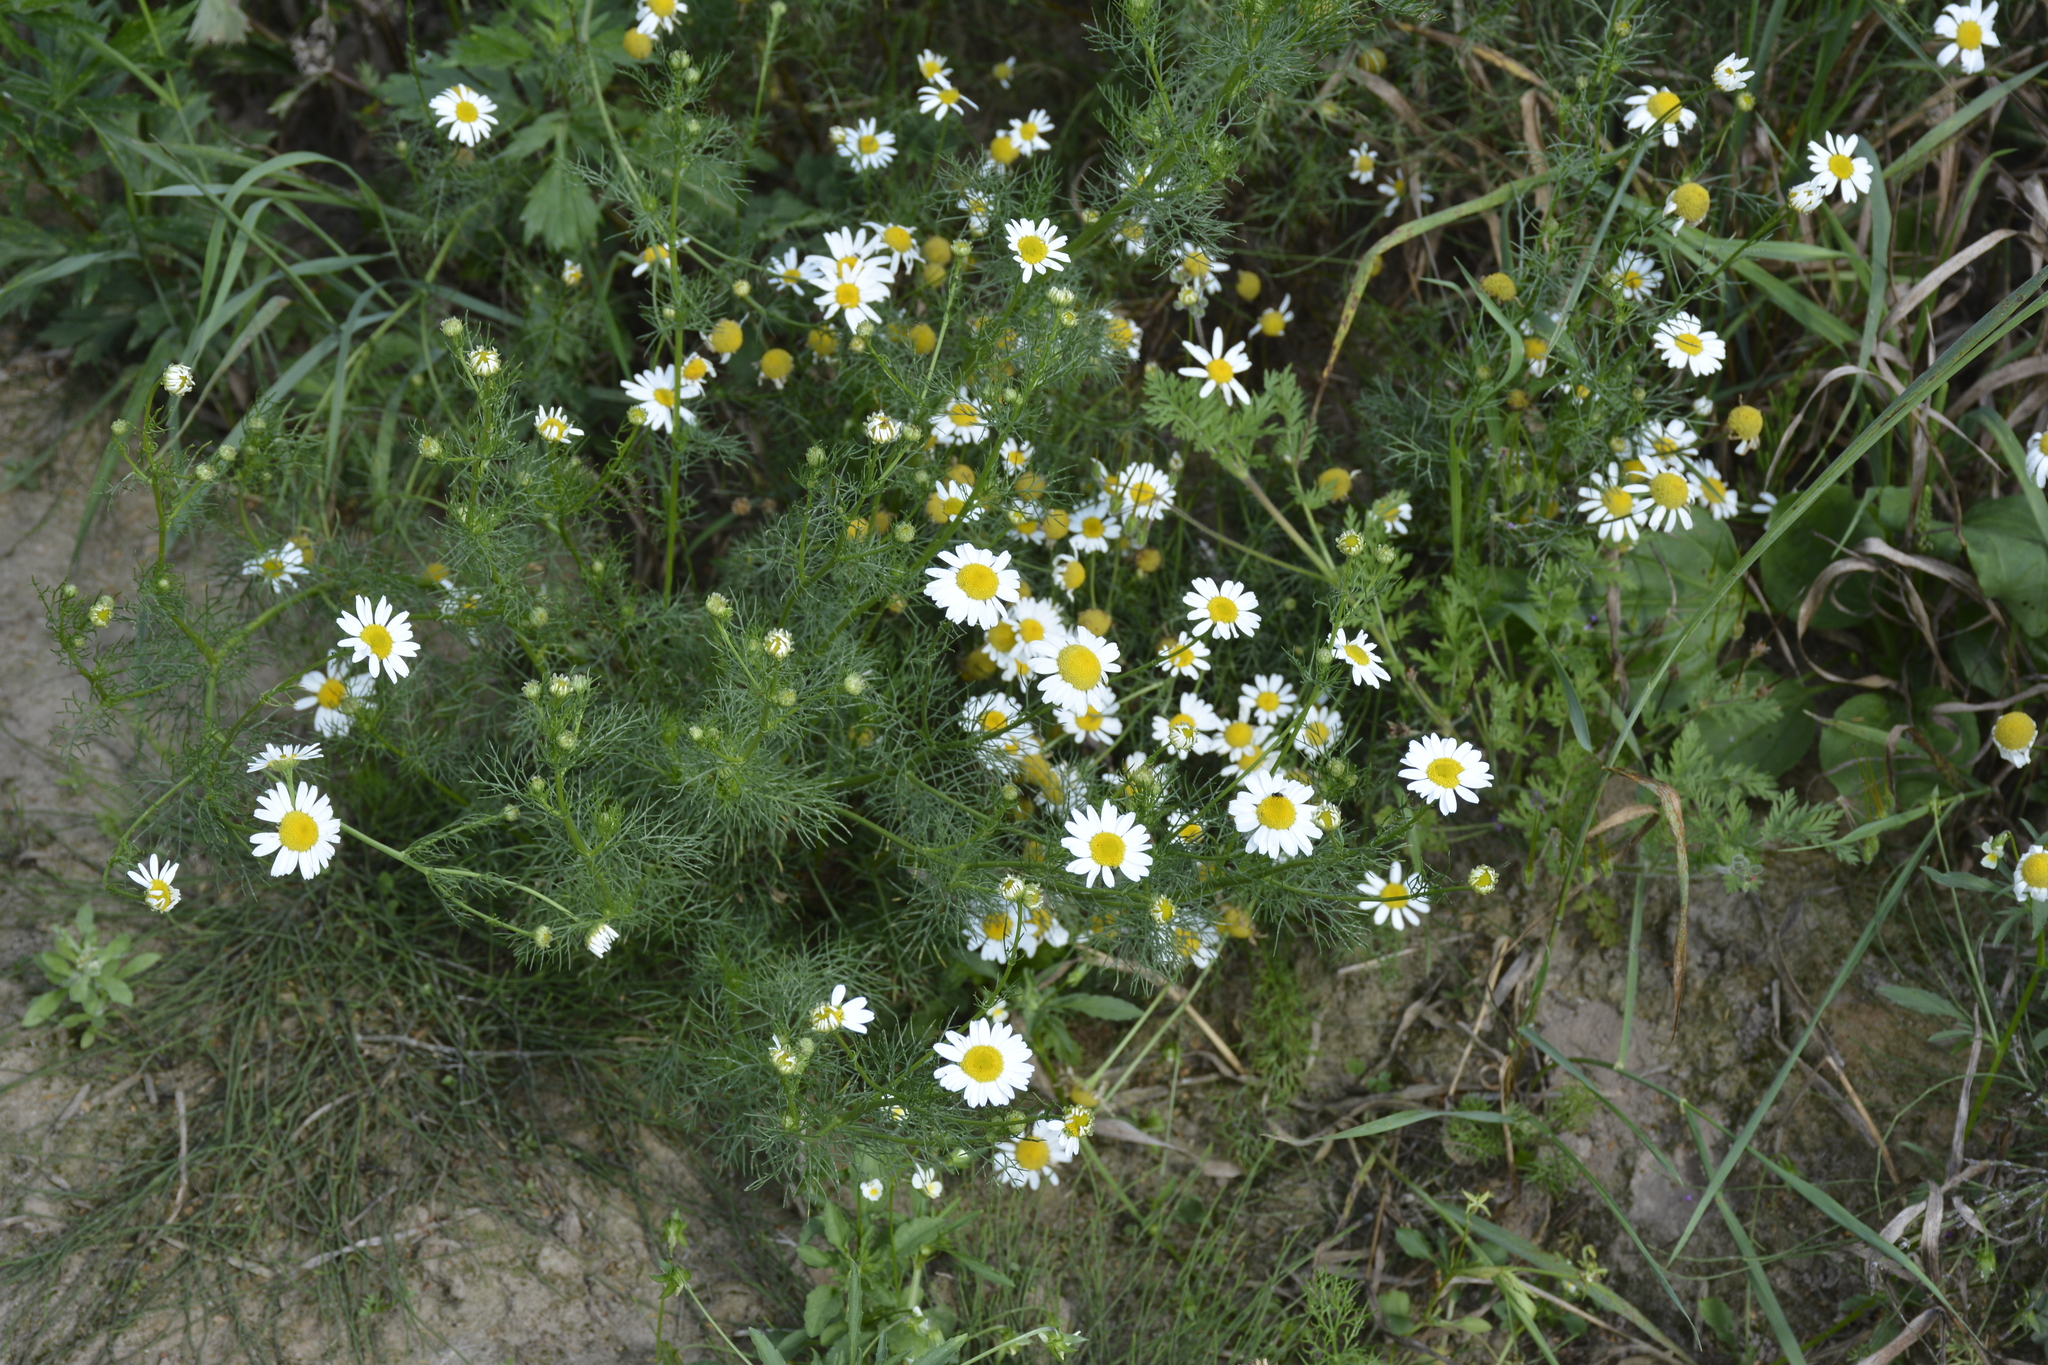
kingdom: Plantae
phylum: Tracheophyta
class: Magnoliopsida
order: Asterales
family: Asteraceae
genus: Tripleurospermum
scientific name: Tripleurospermum inodorum
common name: Scentless mayweed
